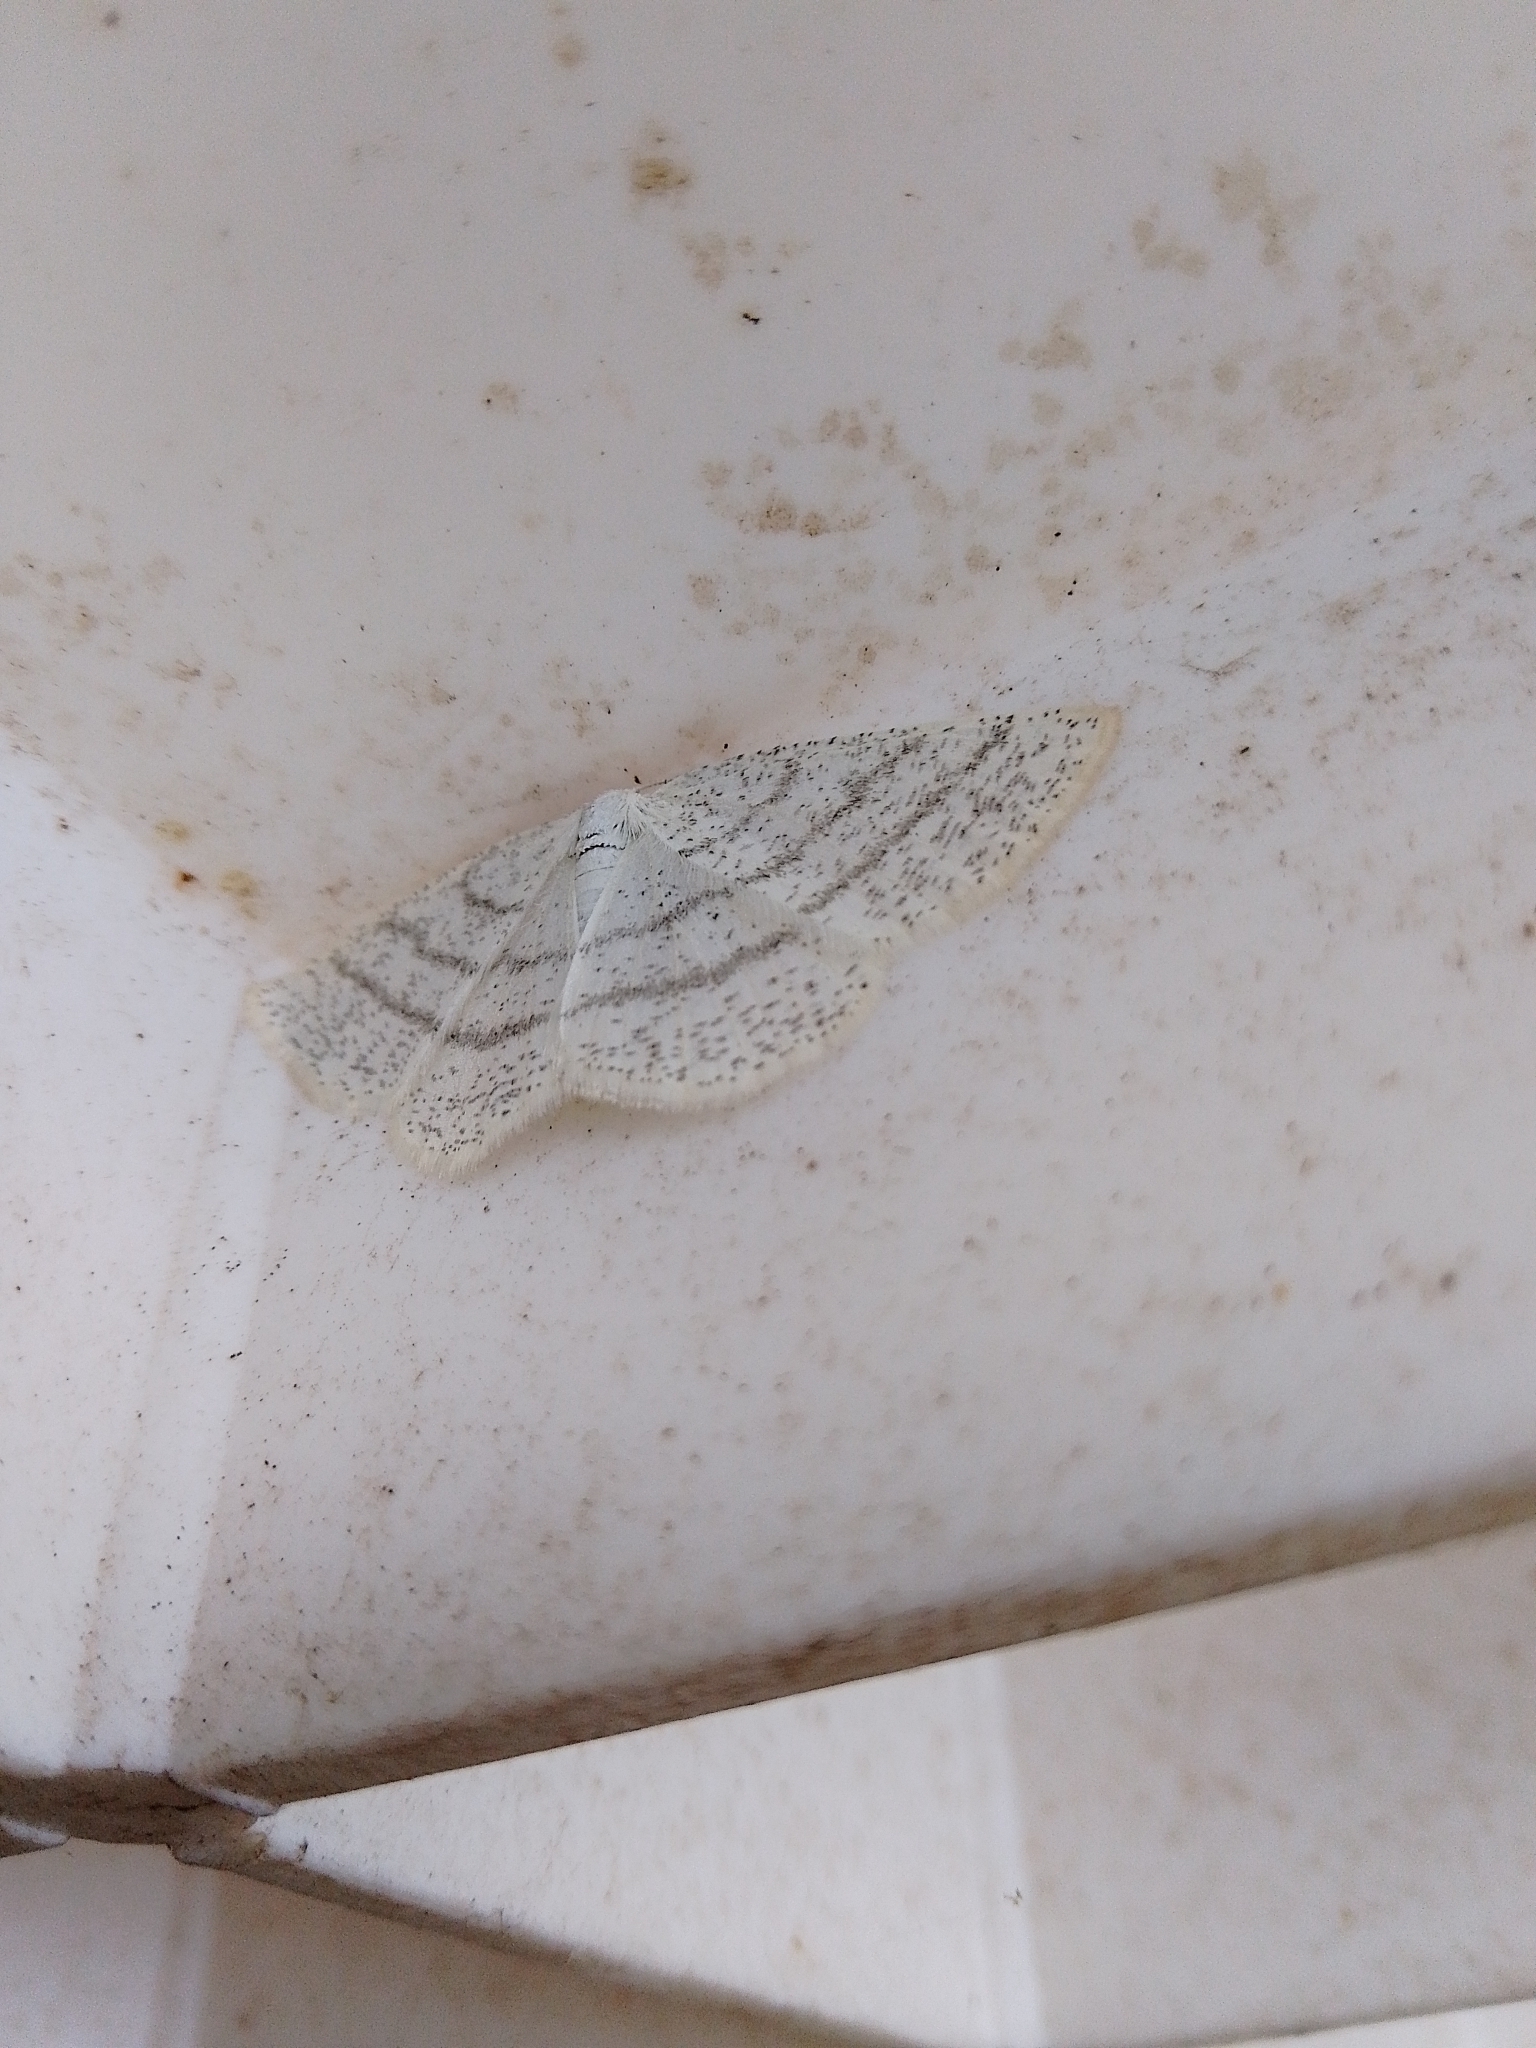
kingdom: Animalia
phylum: Arthropoda
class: Insecta
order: Lepidoptera
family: Geometridae
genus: Cabera
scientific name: Cabera pusaria
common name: Common white wave
